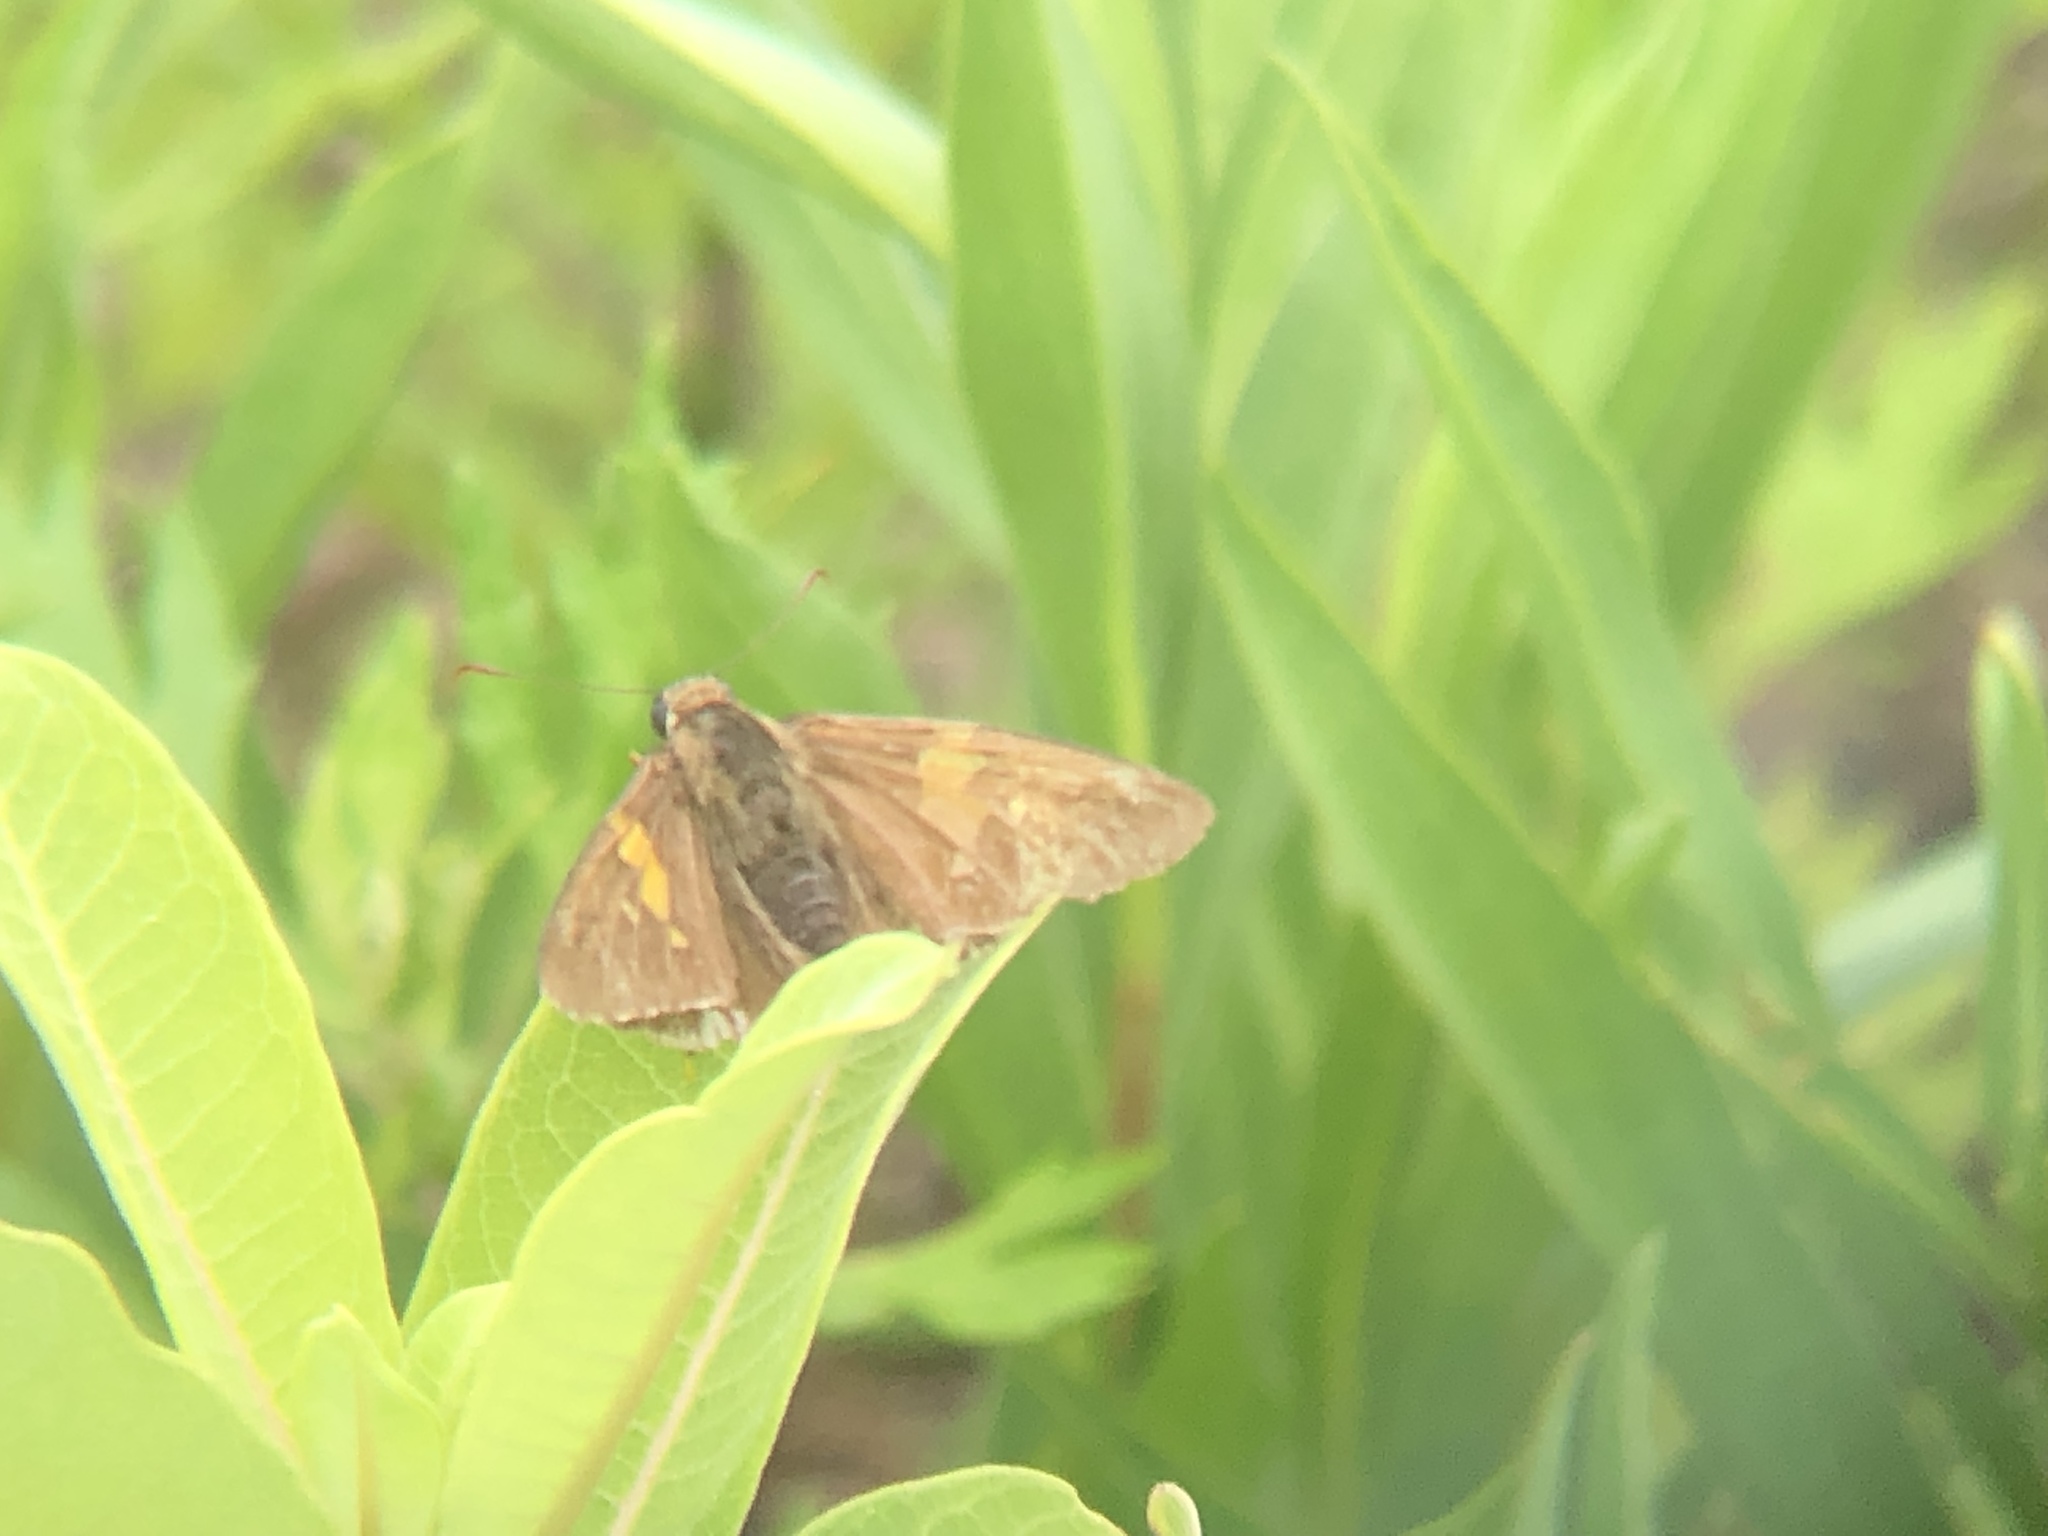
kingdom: Animalia
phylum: Arthropoda
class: Insecta
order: Lepidoptera
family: Hesperiidae
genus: Epargyreus
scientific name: Epargyreus clarus
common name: Silver-spotted skipper
